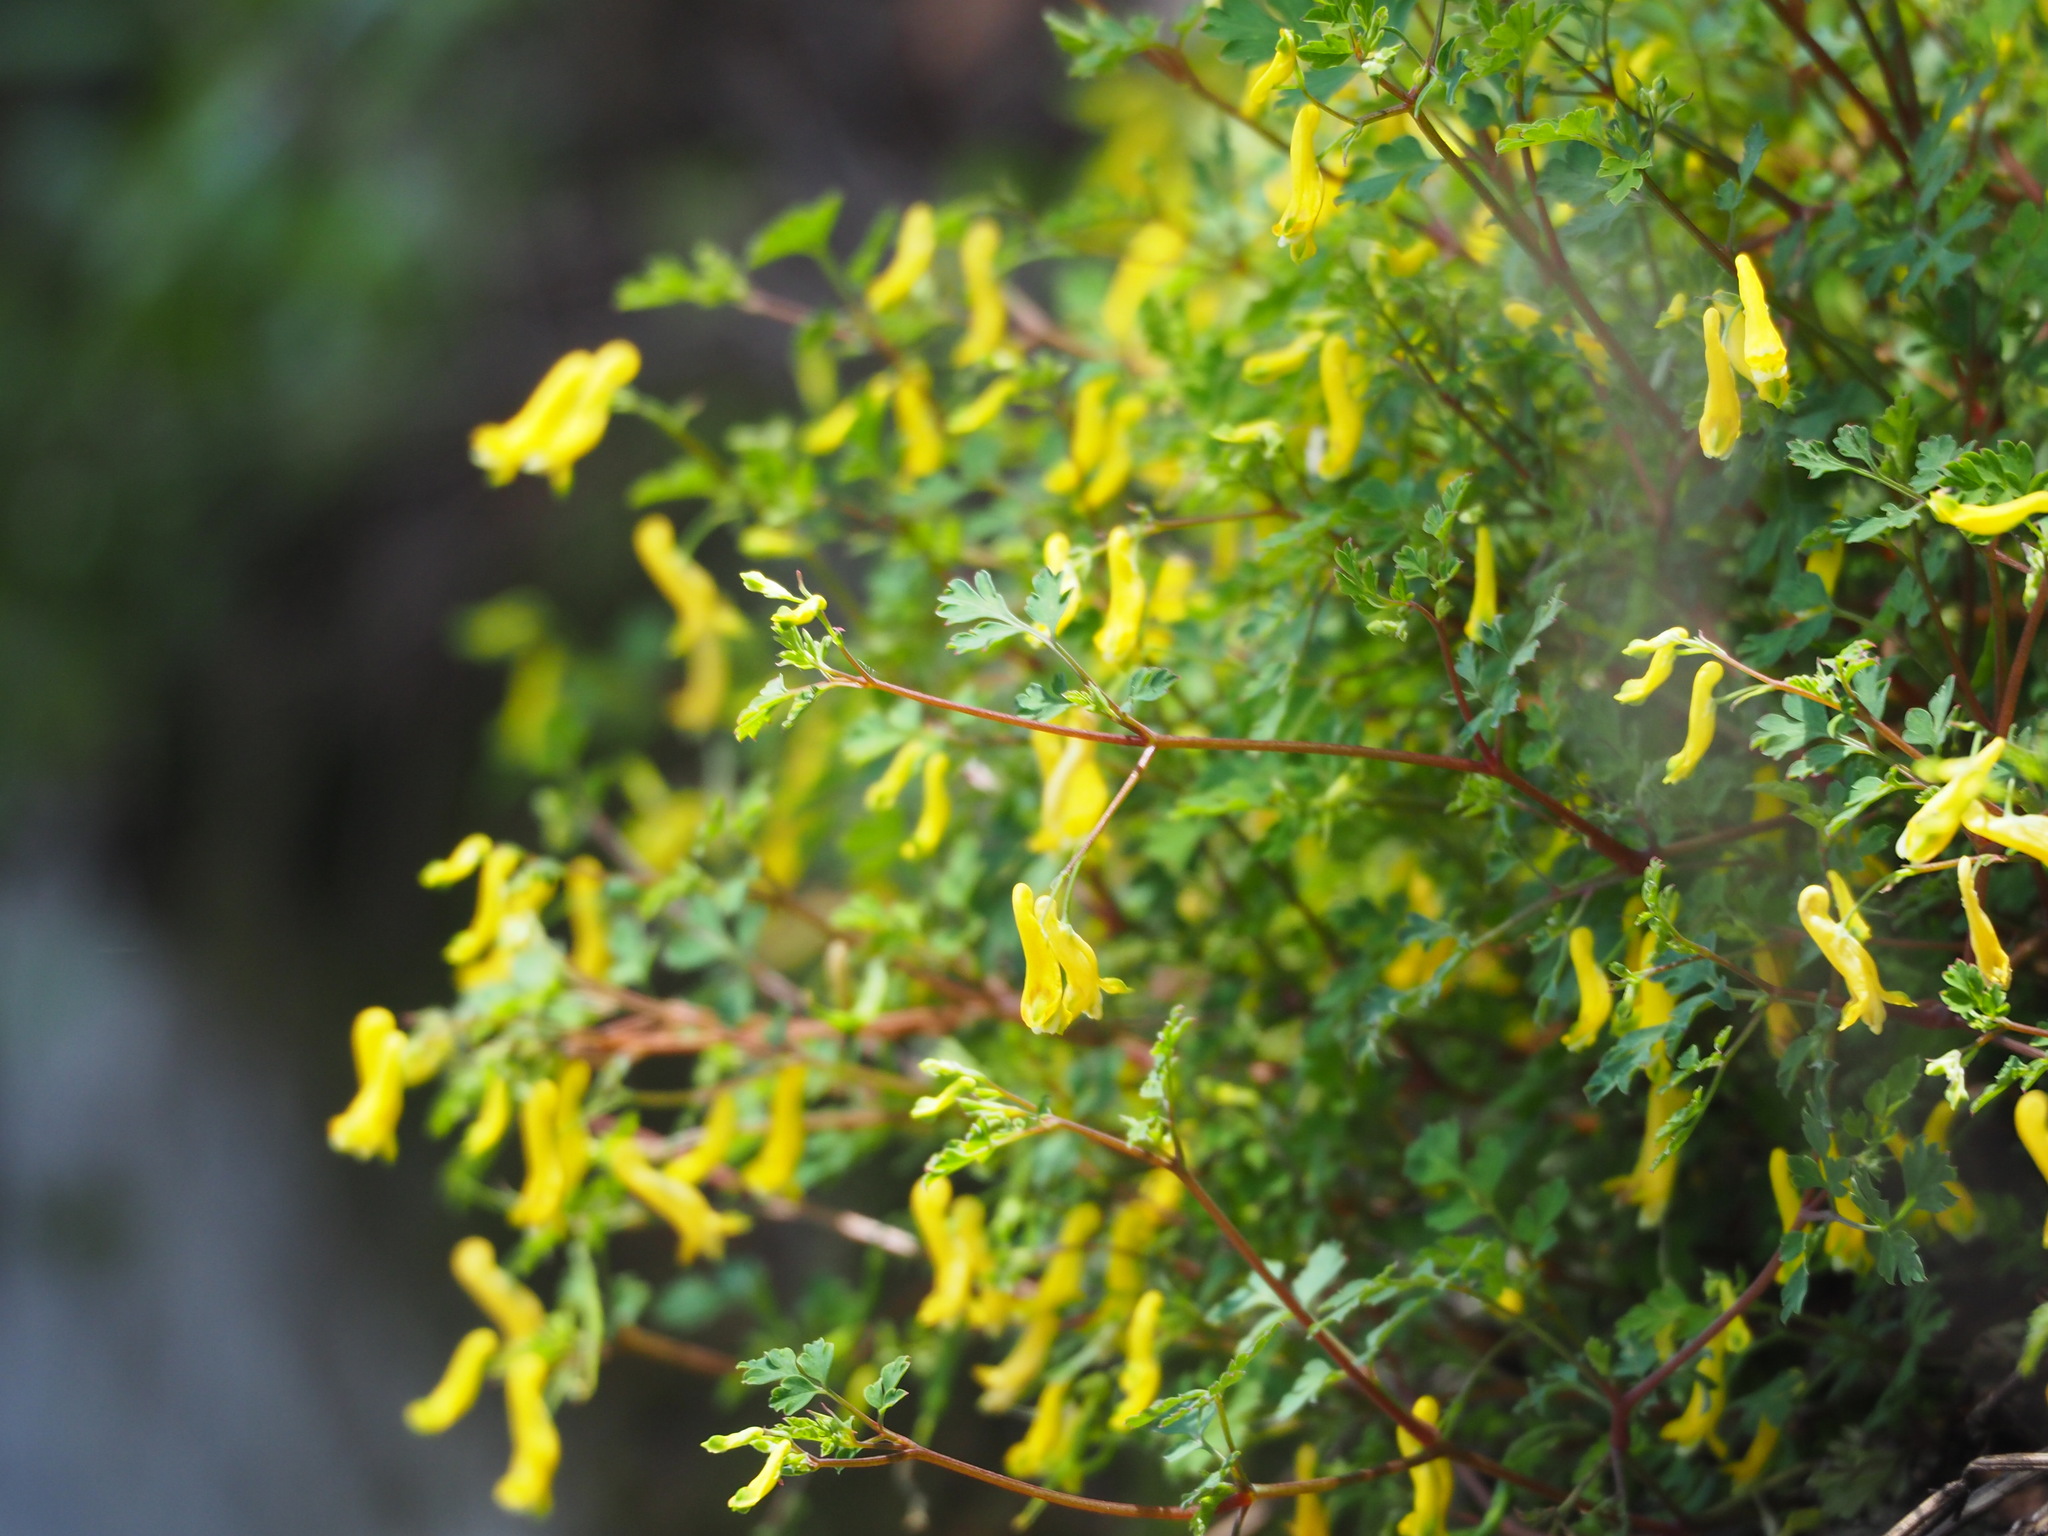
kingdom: Plantae
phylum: Tracheophyta
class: Magnoliopsida
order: Ranunculales
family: Papaveraceae
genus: Corydalis
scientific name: Corydalis pallida
